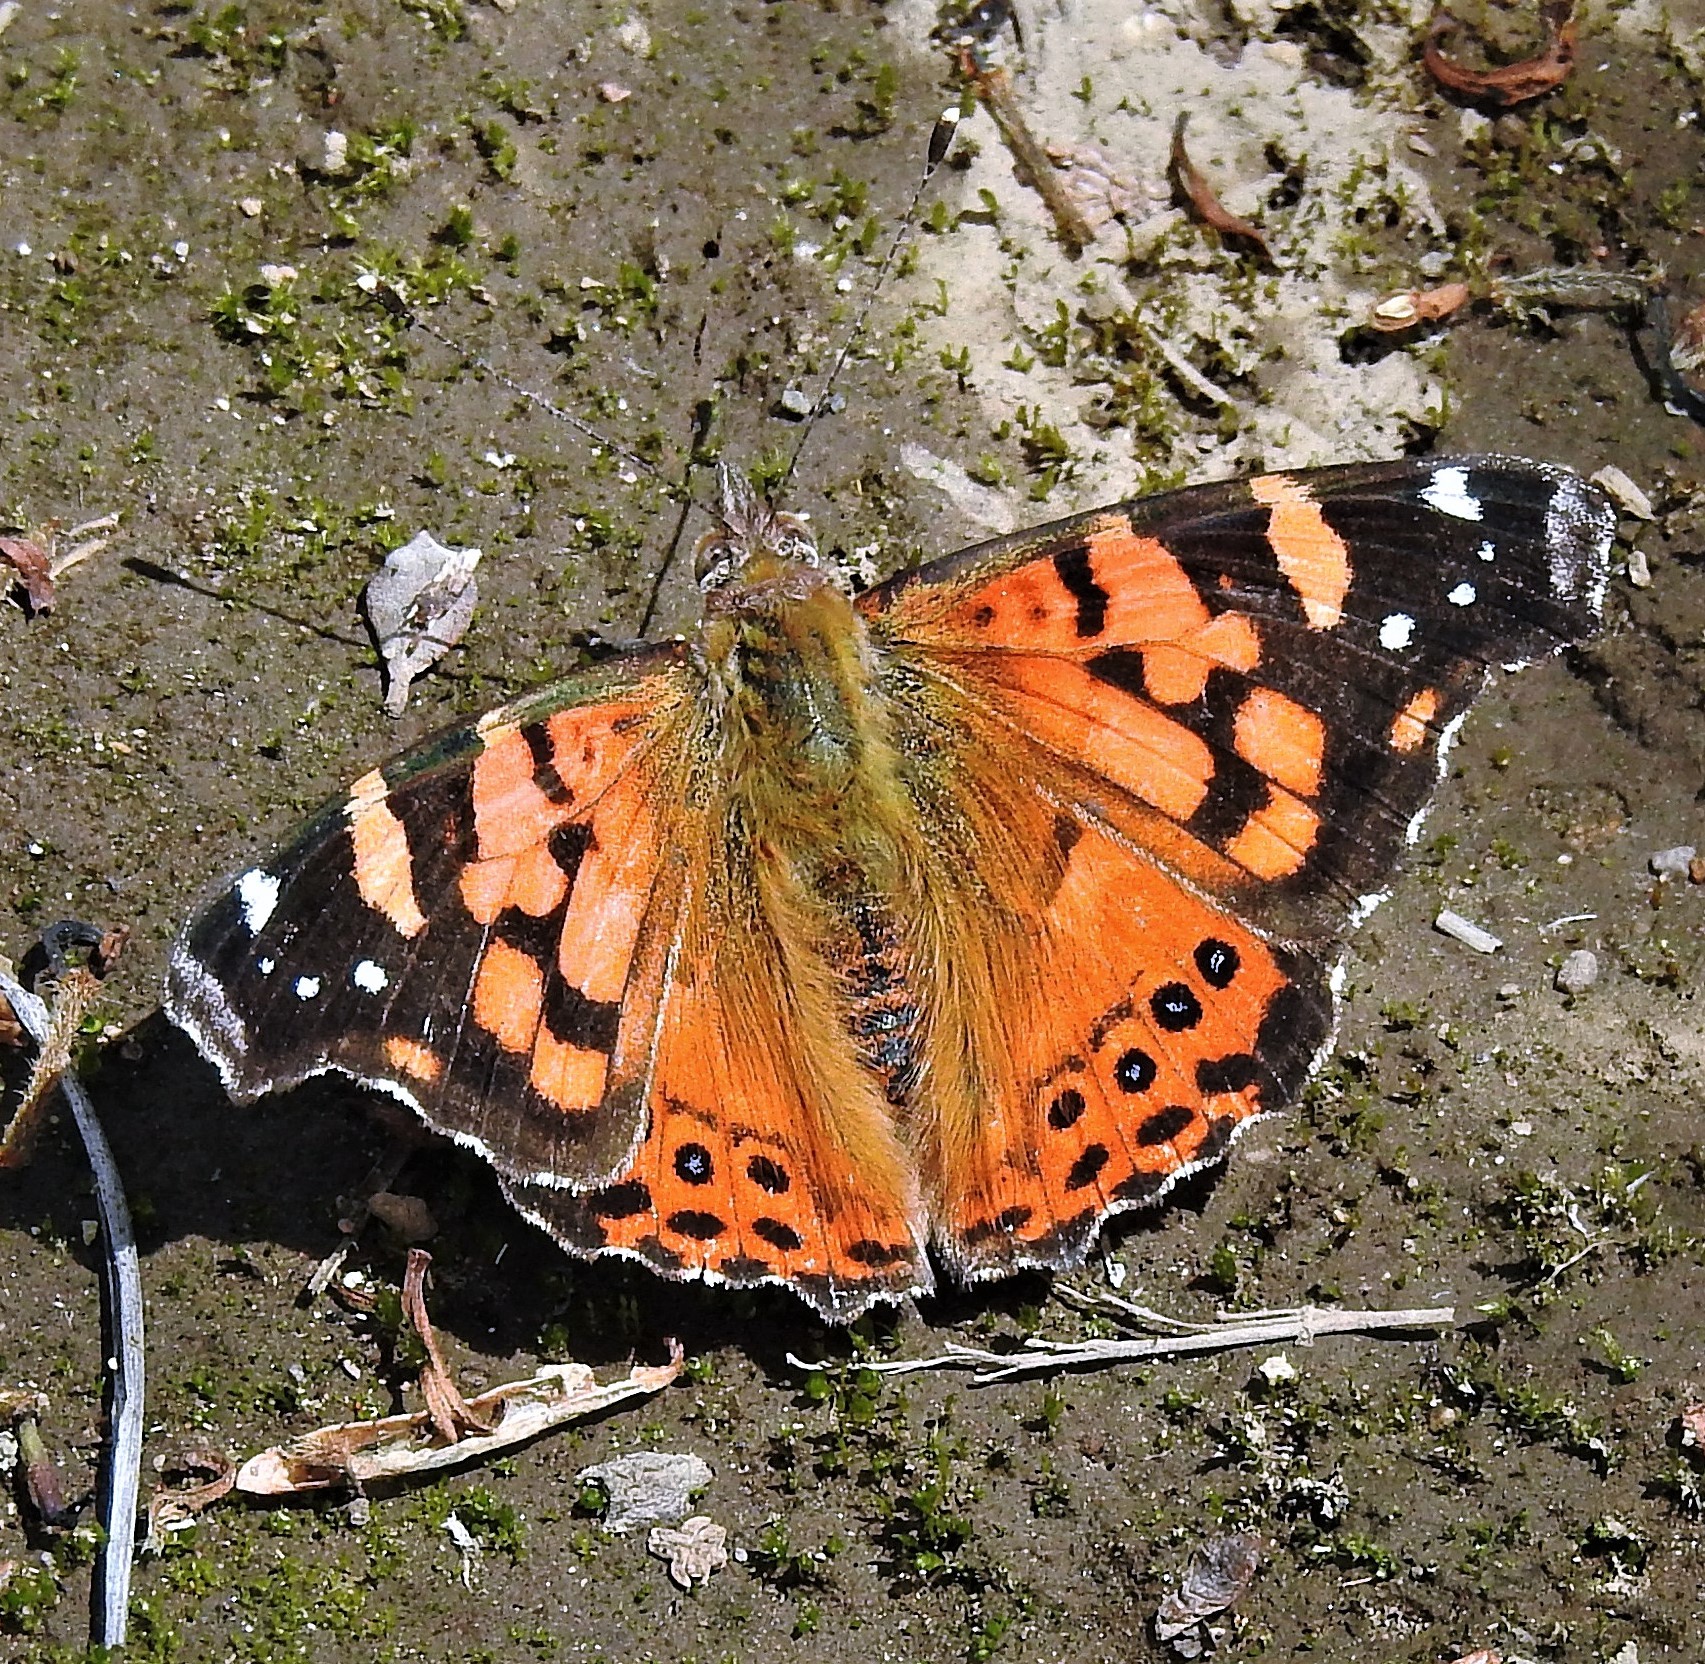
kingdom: Animalia
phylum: Arthropoda
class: Insecta
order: Lepidoptera
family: Nymphalidae
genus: Vanessa
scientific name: Vanessa carye
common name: Subtropical lady
